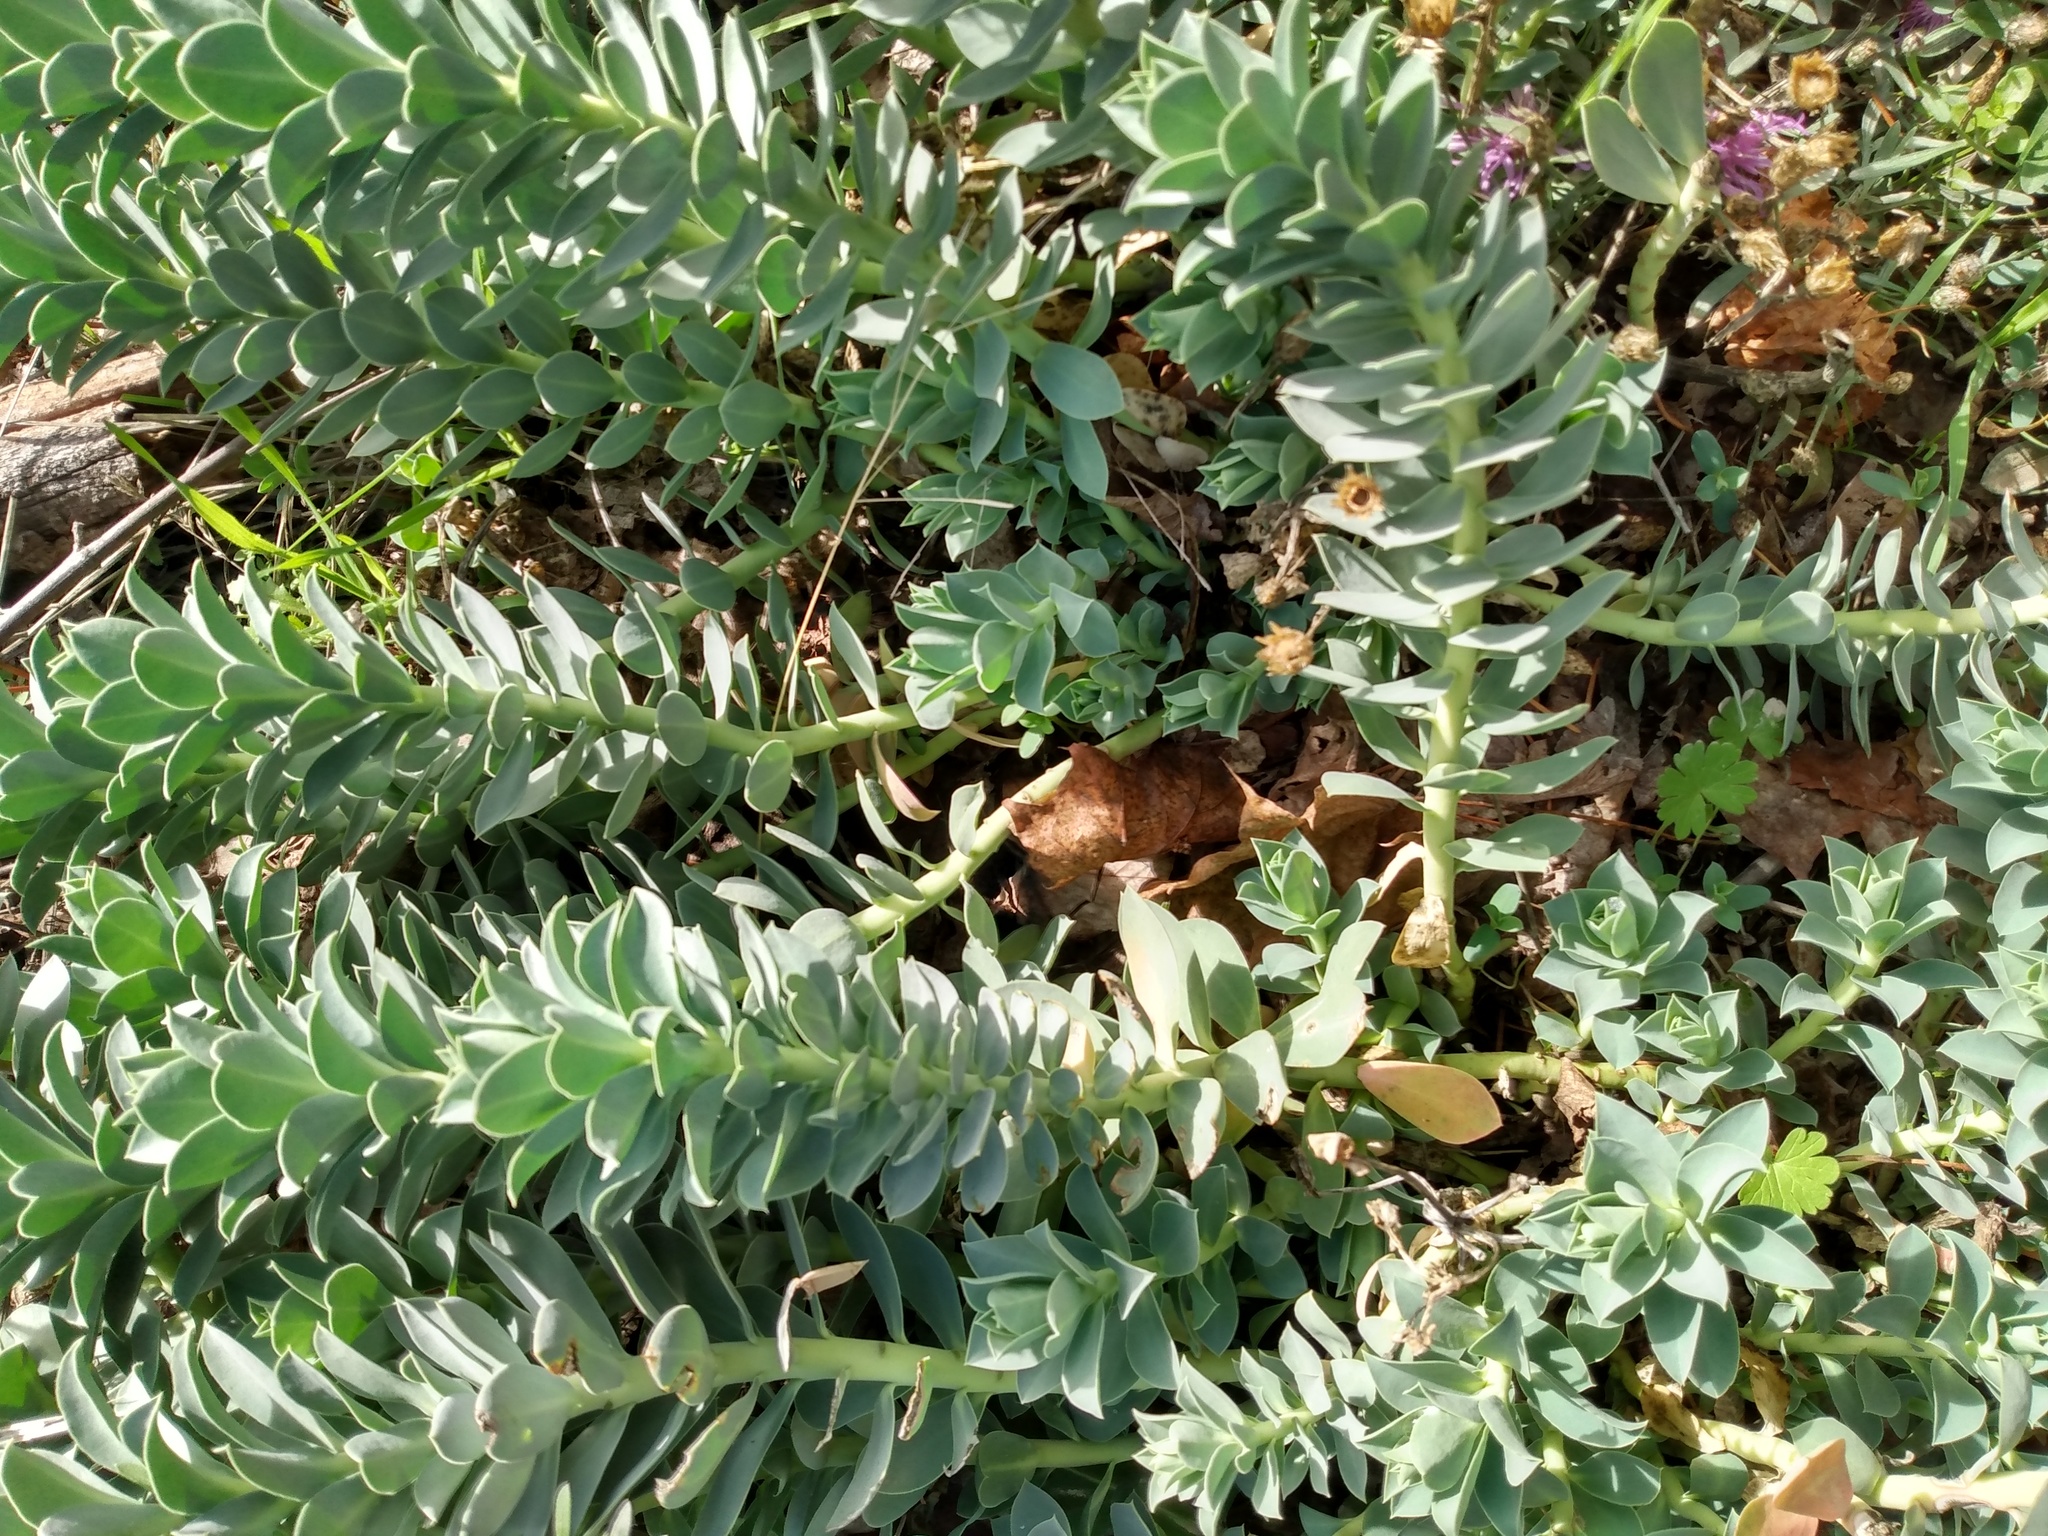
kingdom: Plantae
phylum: Tracheophyta
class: Magnoliopsida
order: Malpighiales
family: Euphorbiaceae
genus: Euphorbia
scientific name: Euphorbia myrsinites
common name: Myrtle spurge
